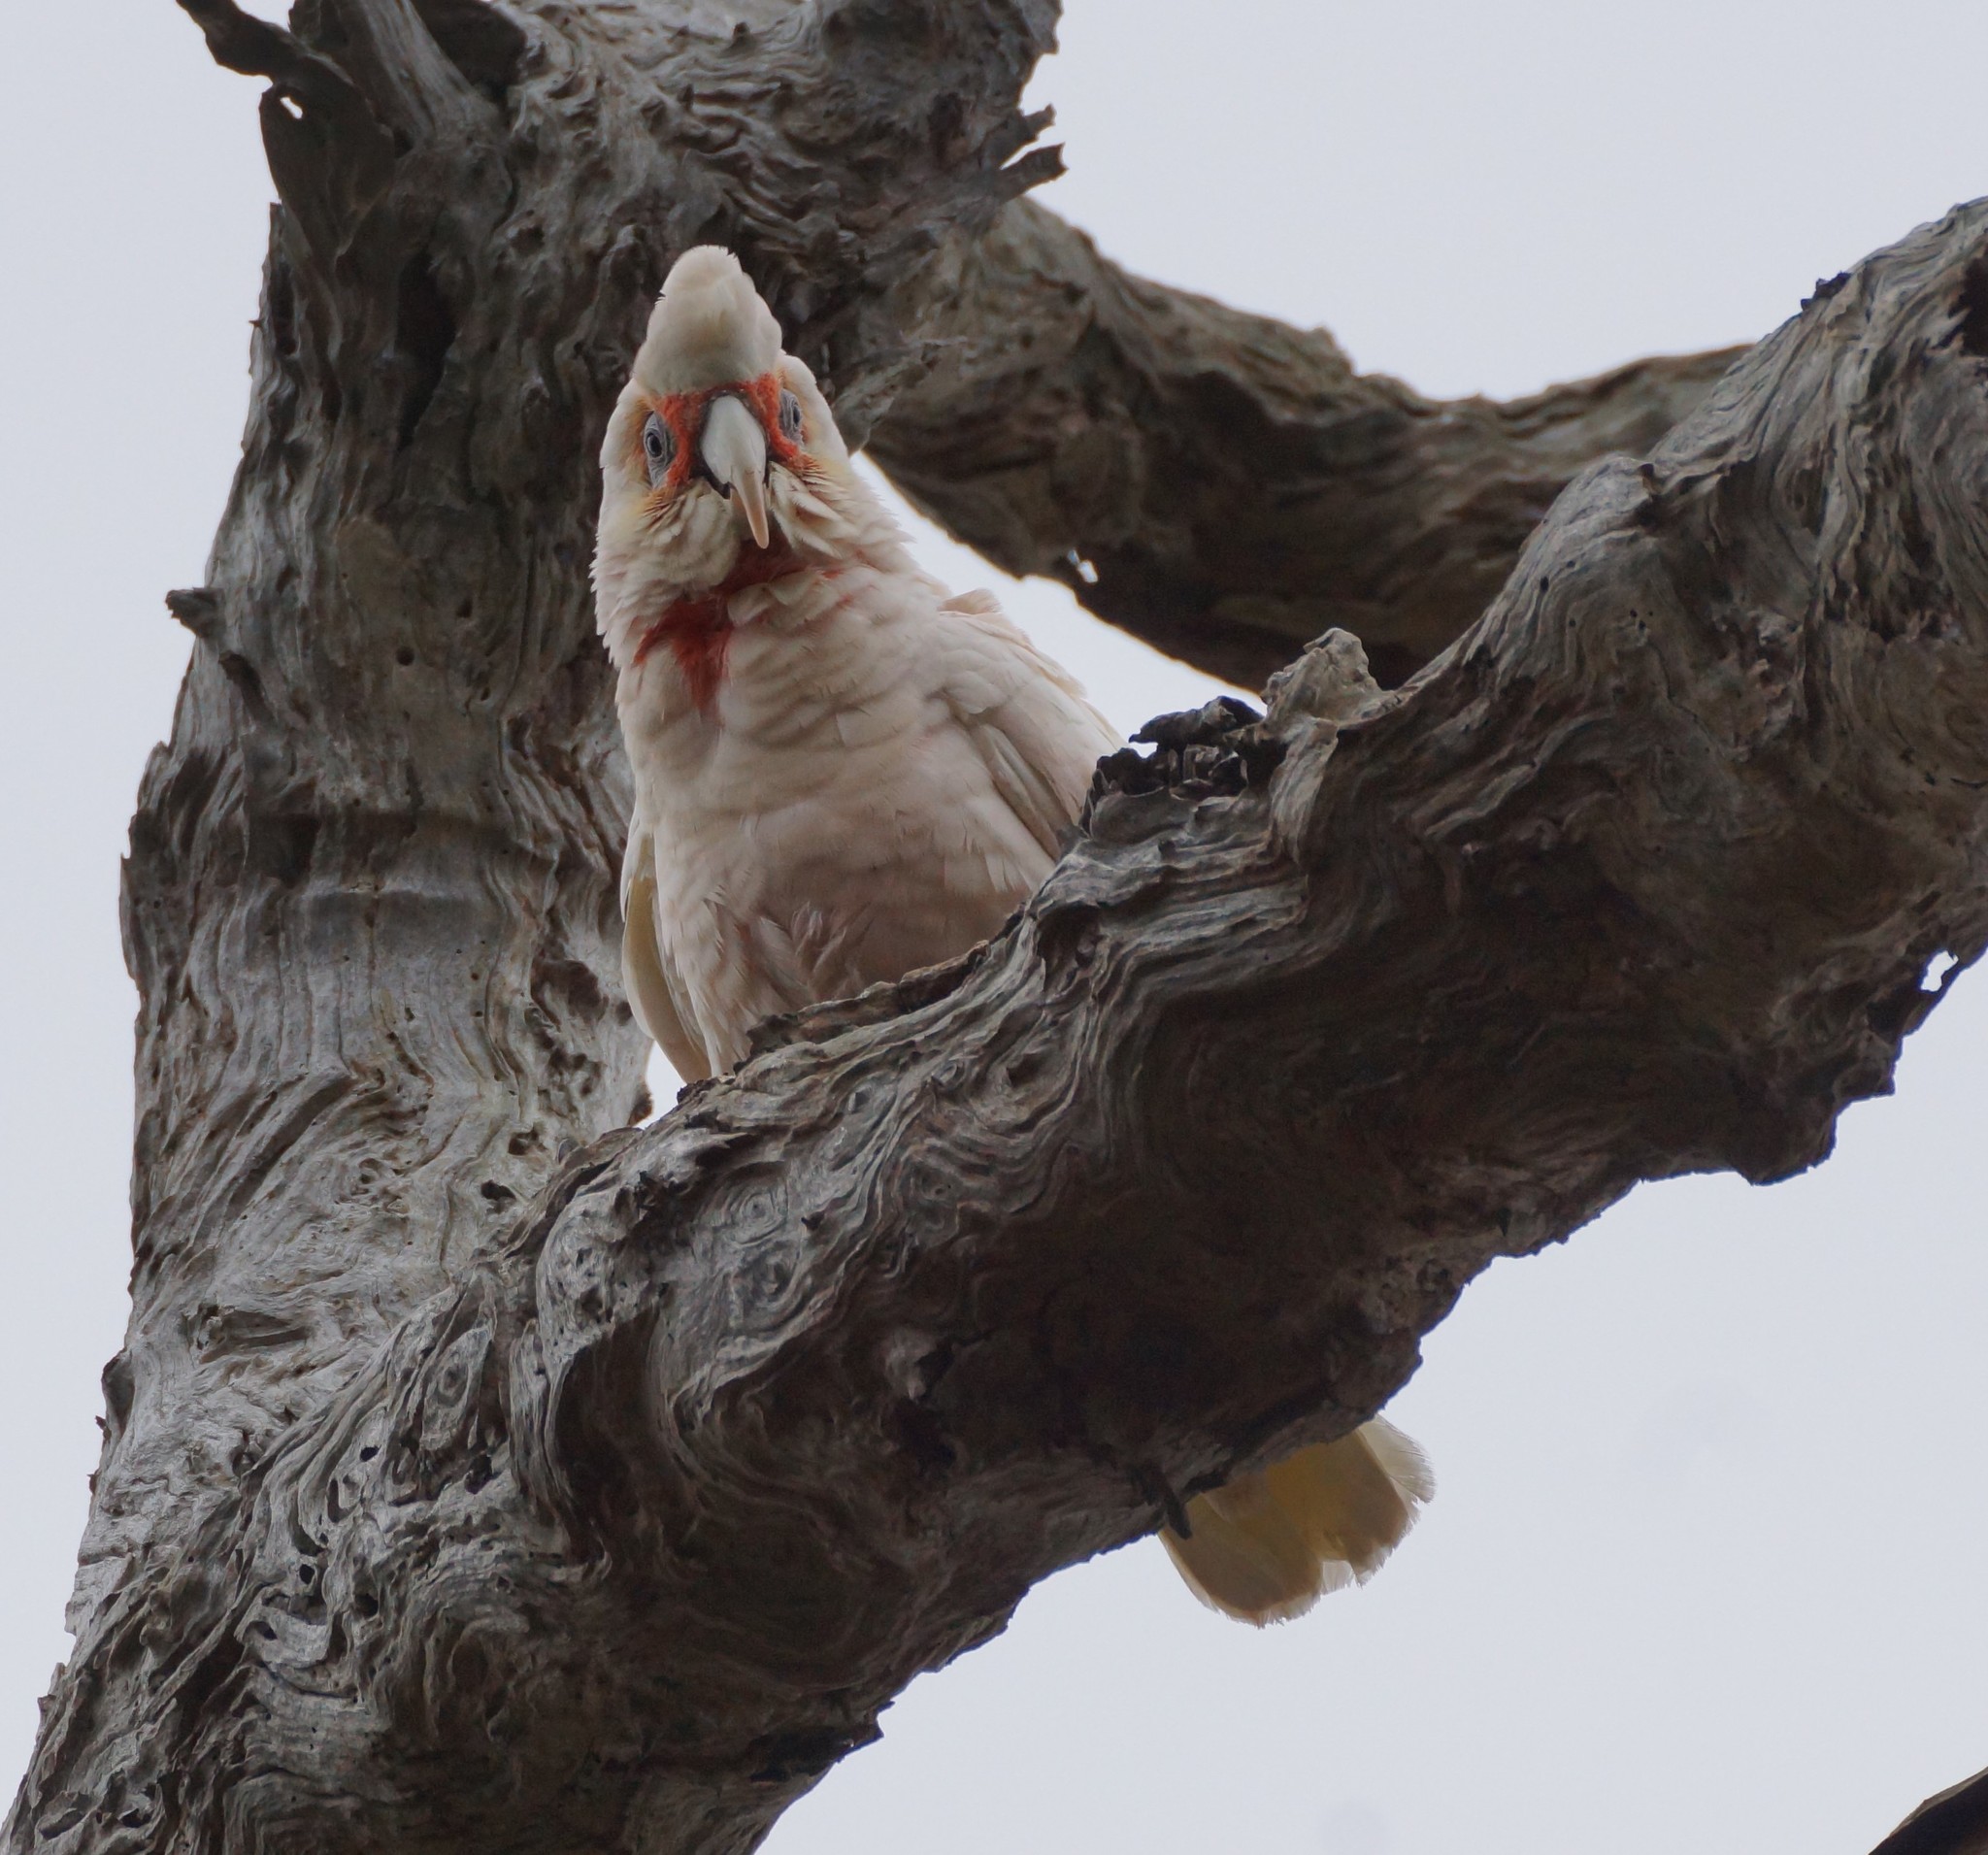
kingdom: Animalia
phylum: Chordata
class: Aves
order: Psittaciformes
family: Psittacidae
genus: Cacatua
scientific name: Cacatua tenuirostris
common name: Long-billed corella
